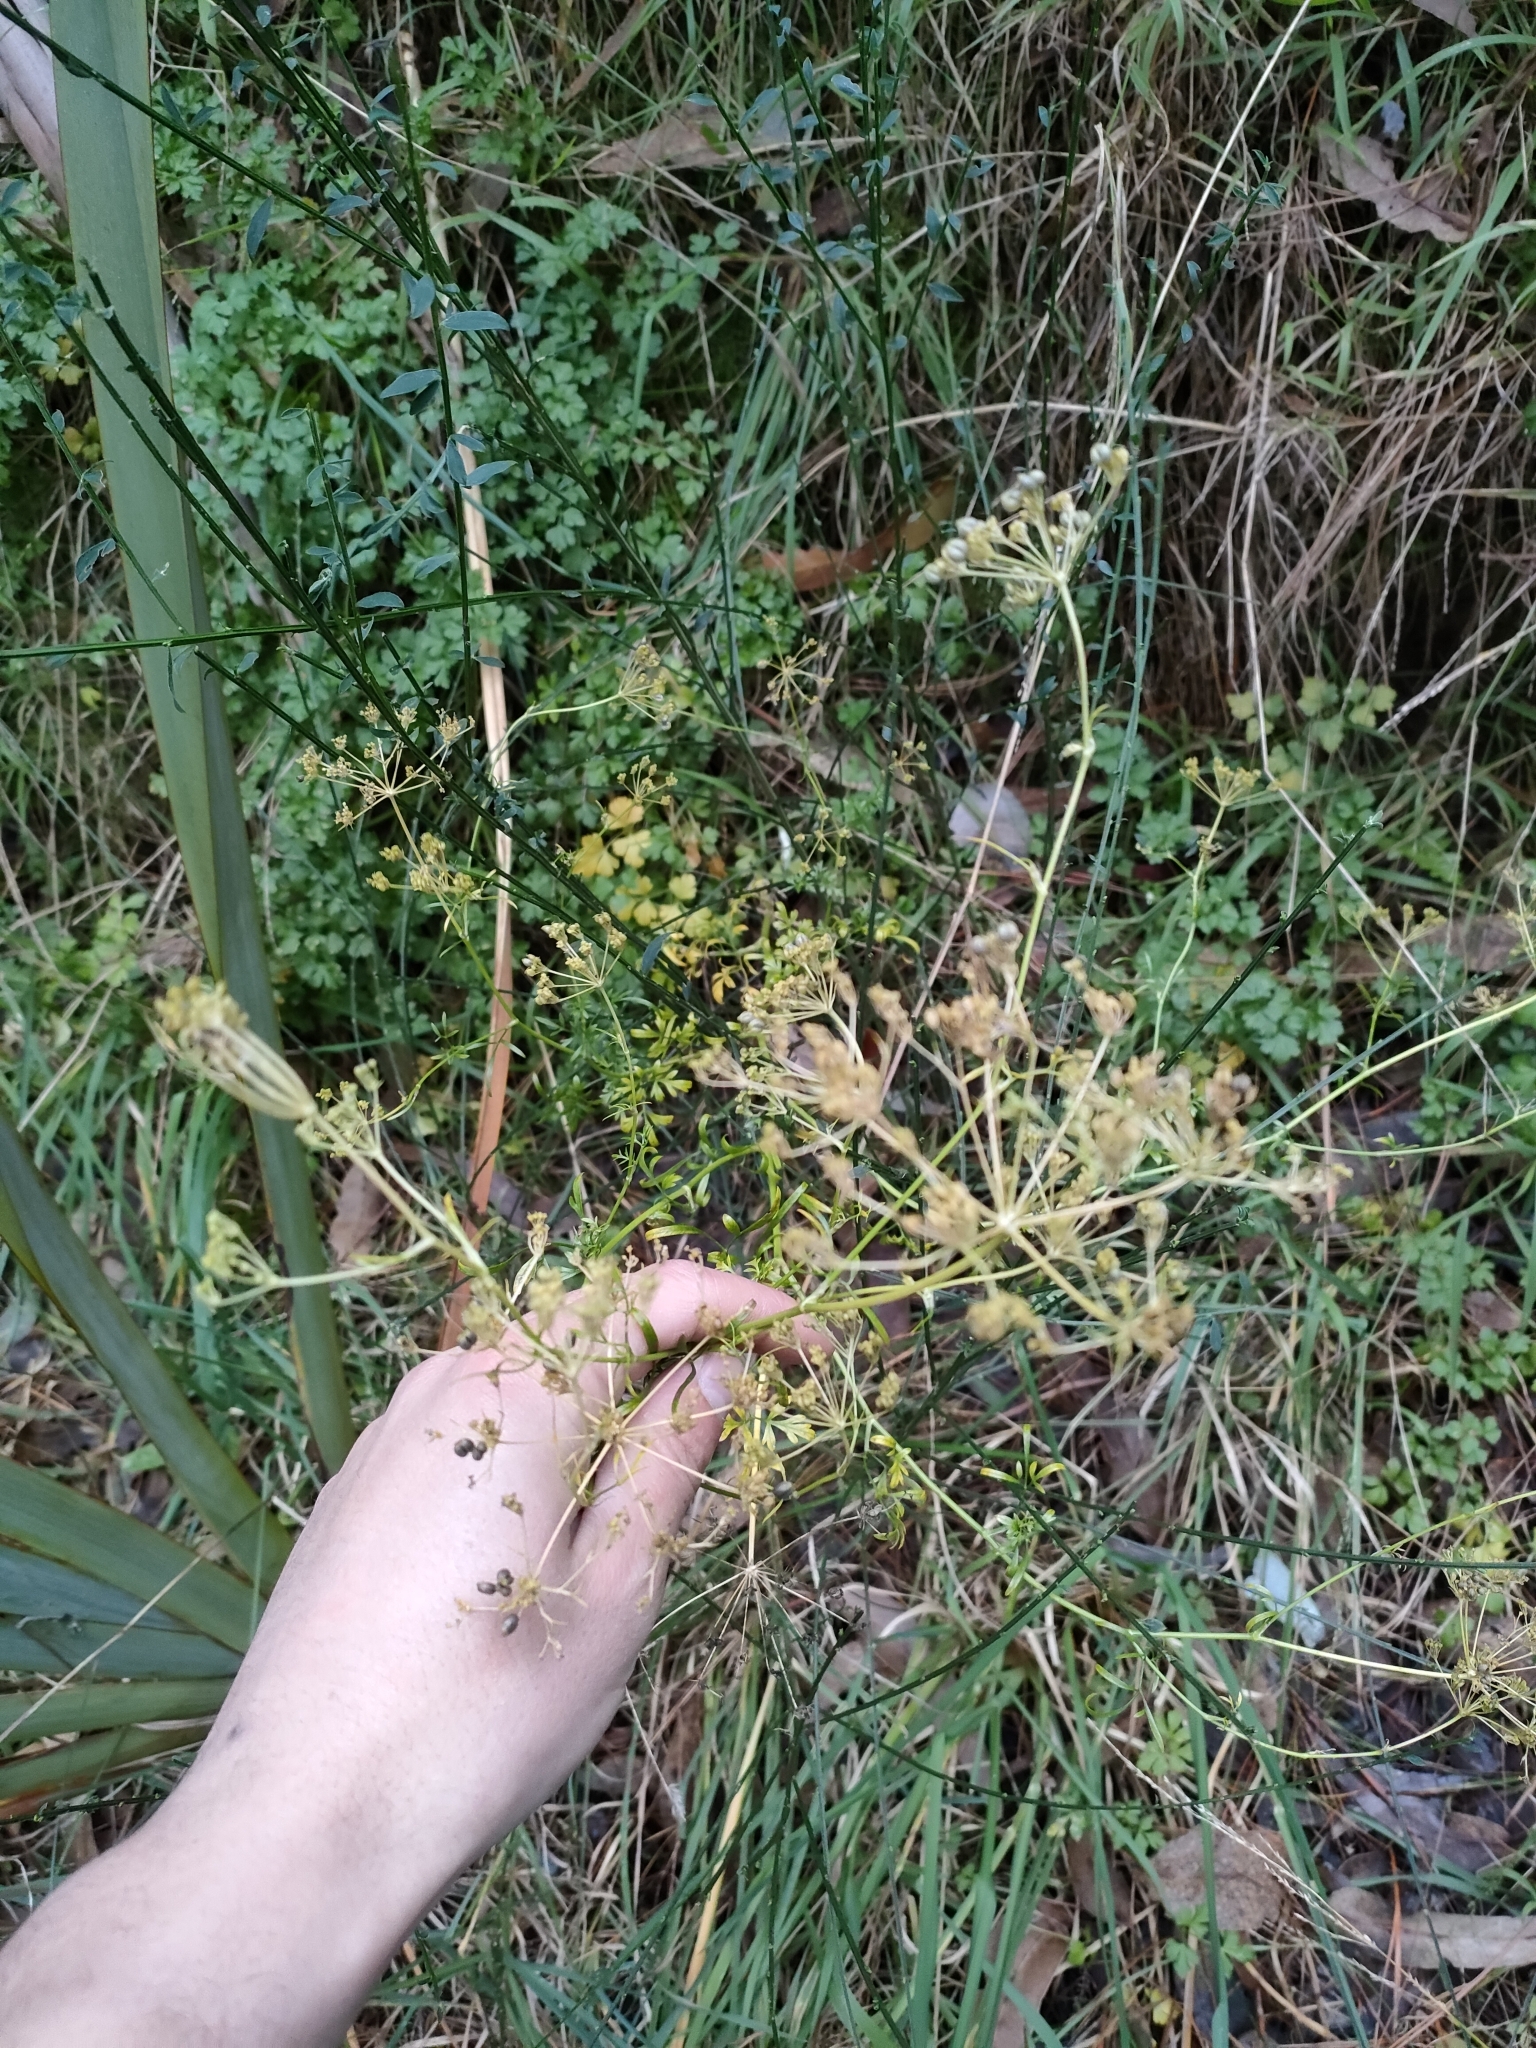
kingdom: Plantae
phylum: Tracheophyta
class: Magnoliopsida
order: Apiales
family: Apiaceae
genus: Petroselinum
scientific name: Petroselinum crispum
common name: Parsley
